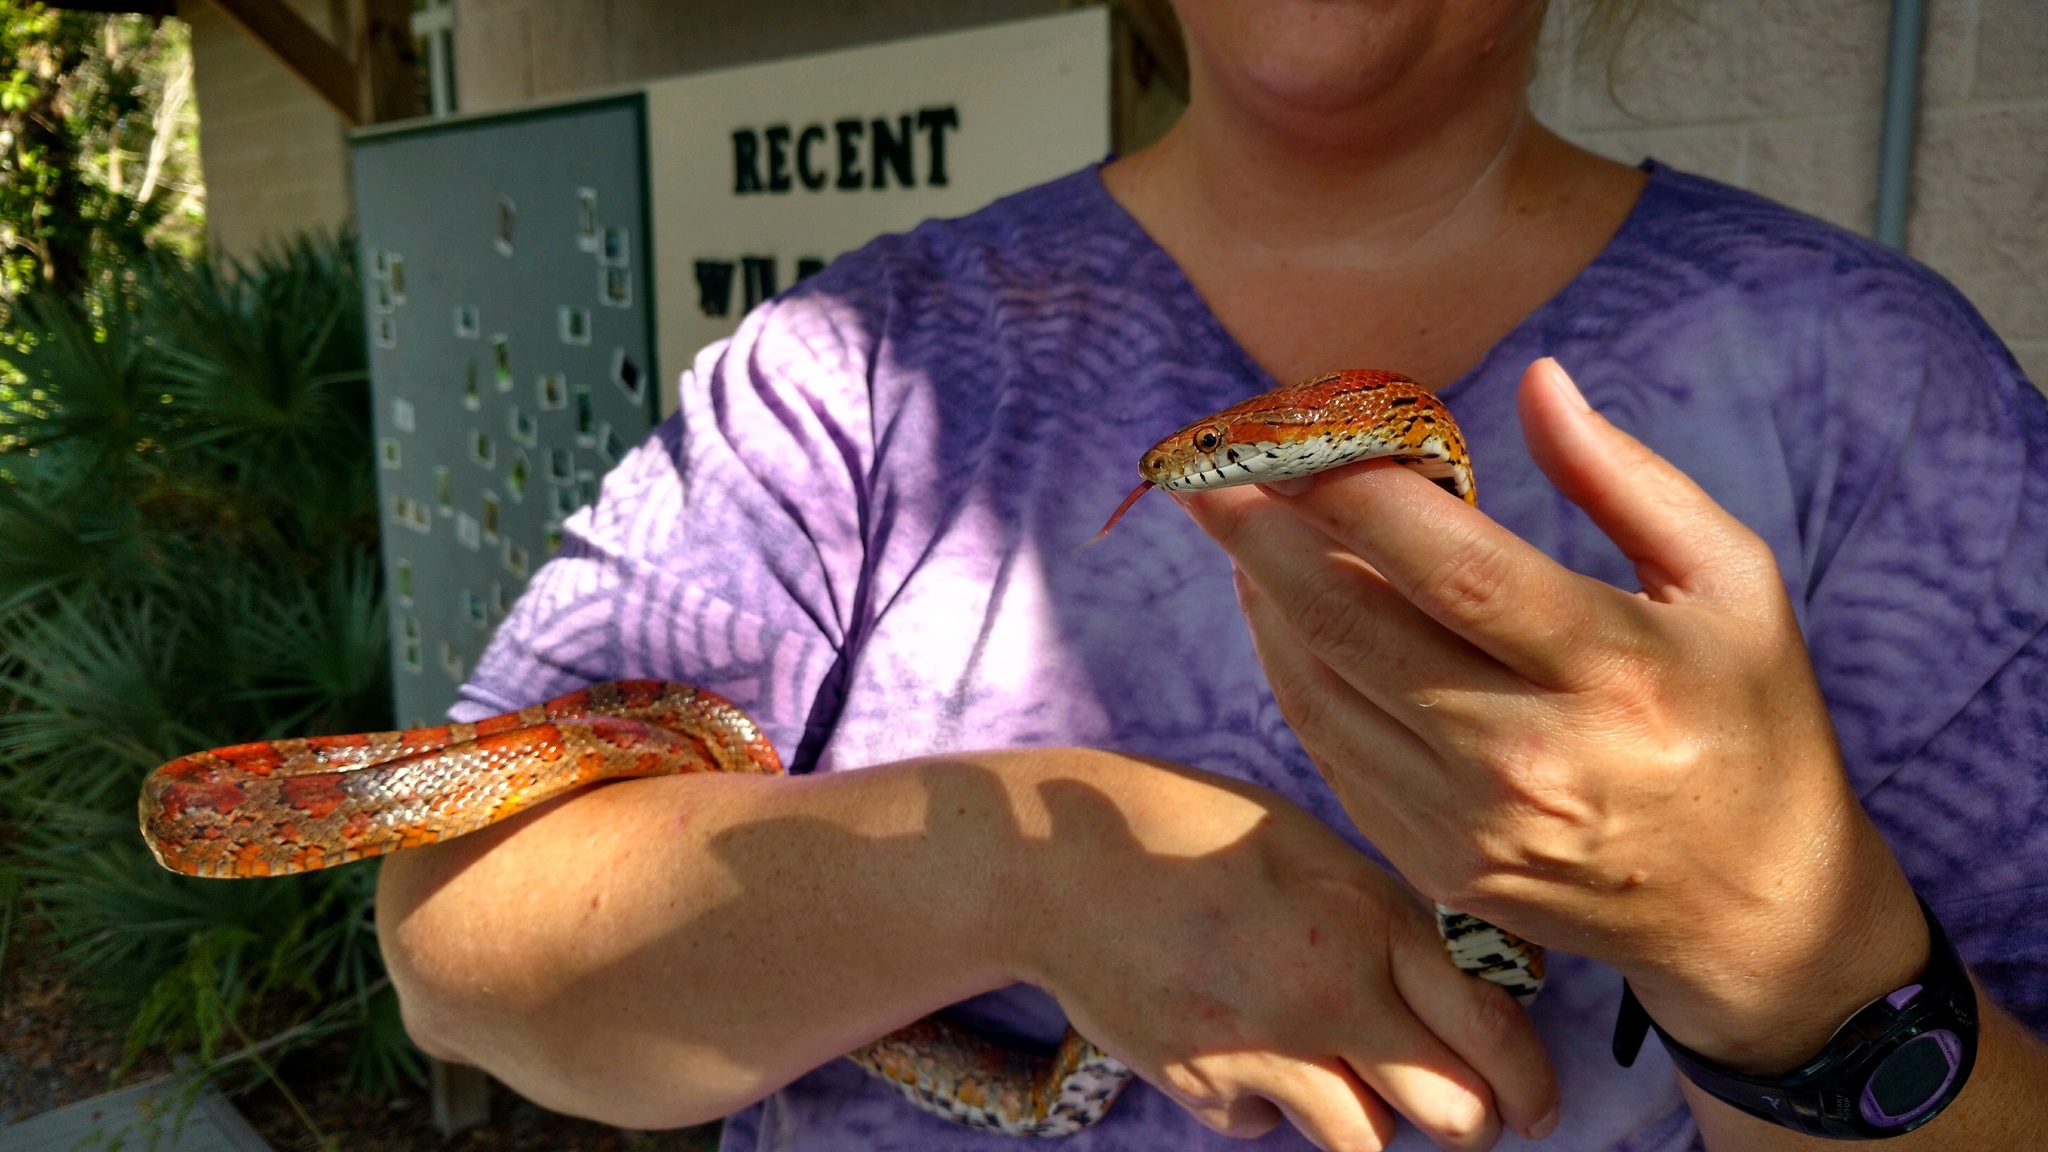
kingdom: Animalia
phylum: Chordata
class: Squamata
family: Colubridae
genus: Pantherophis
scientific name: Pantherophis guttatus
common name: Red cornsnake
